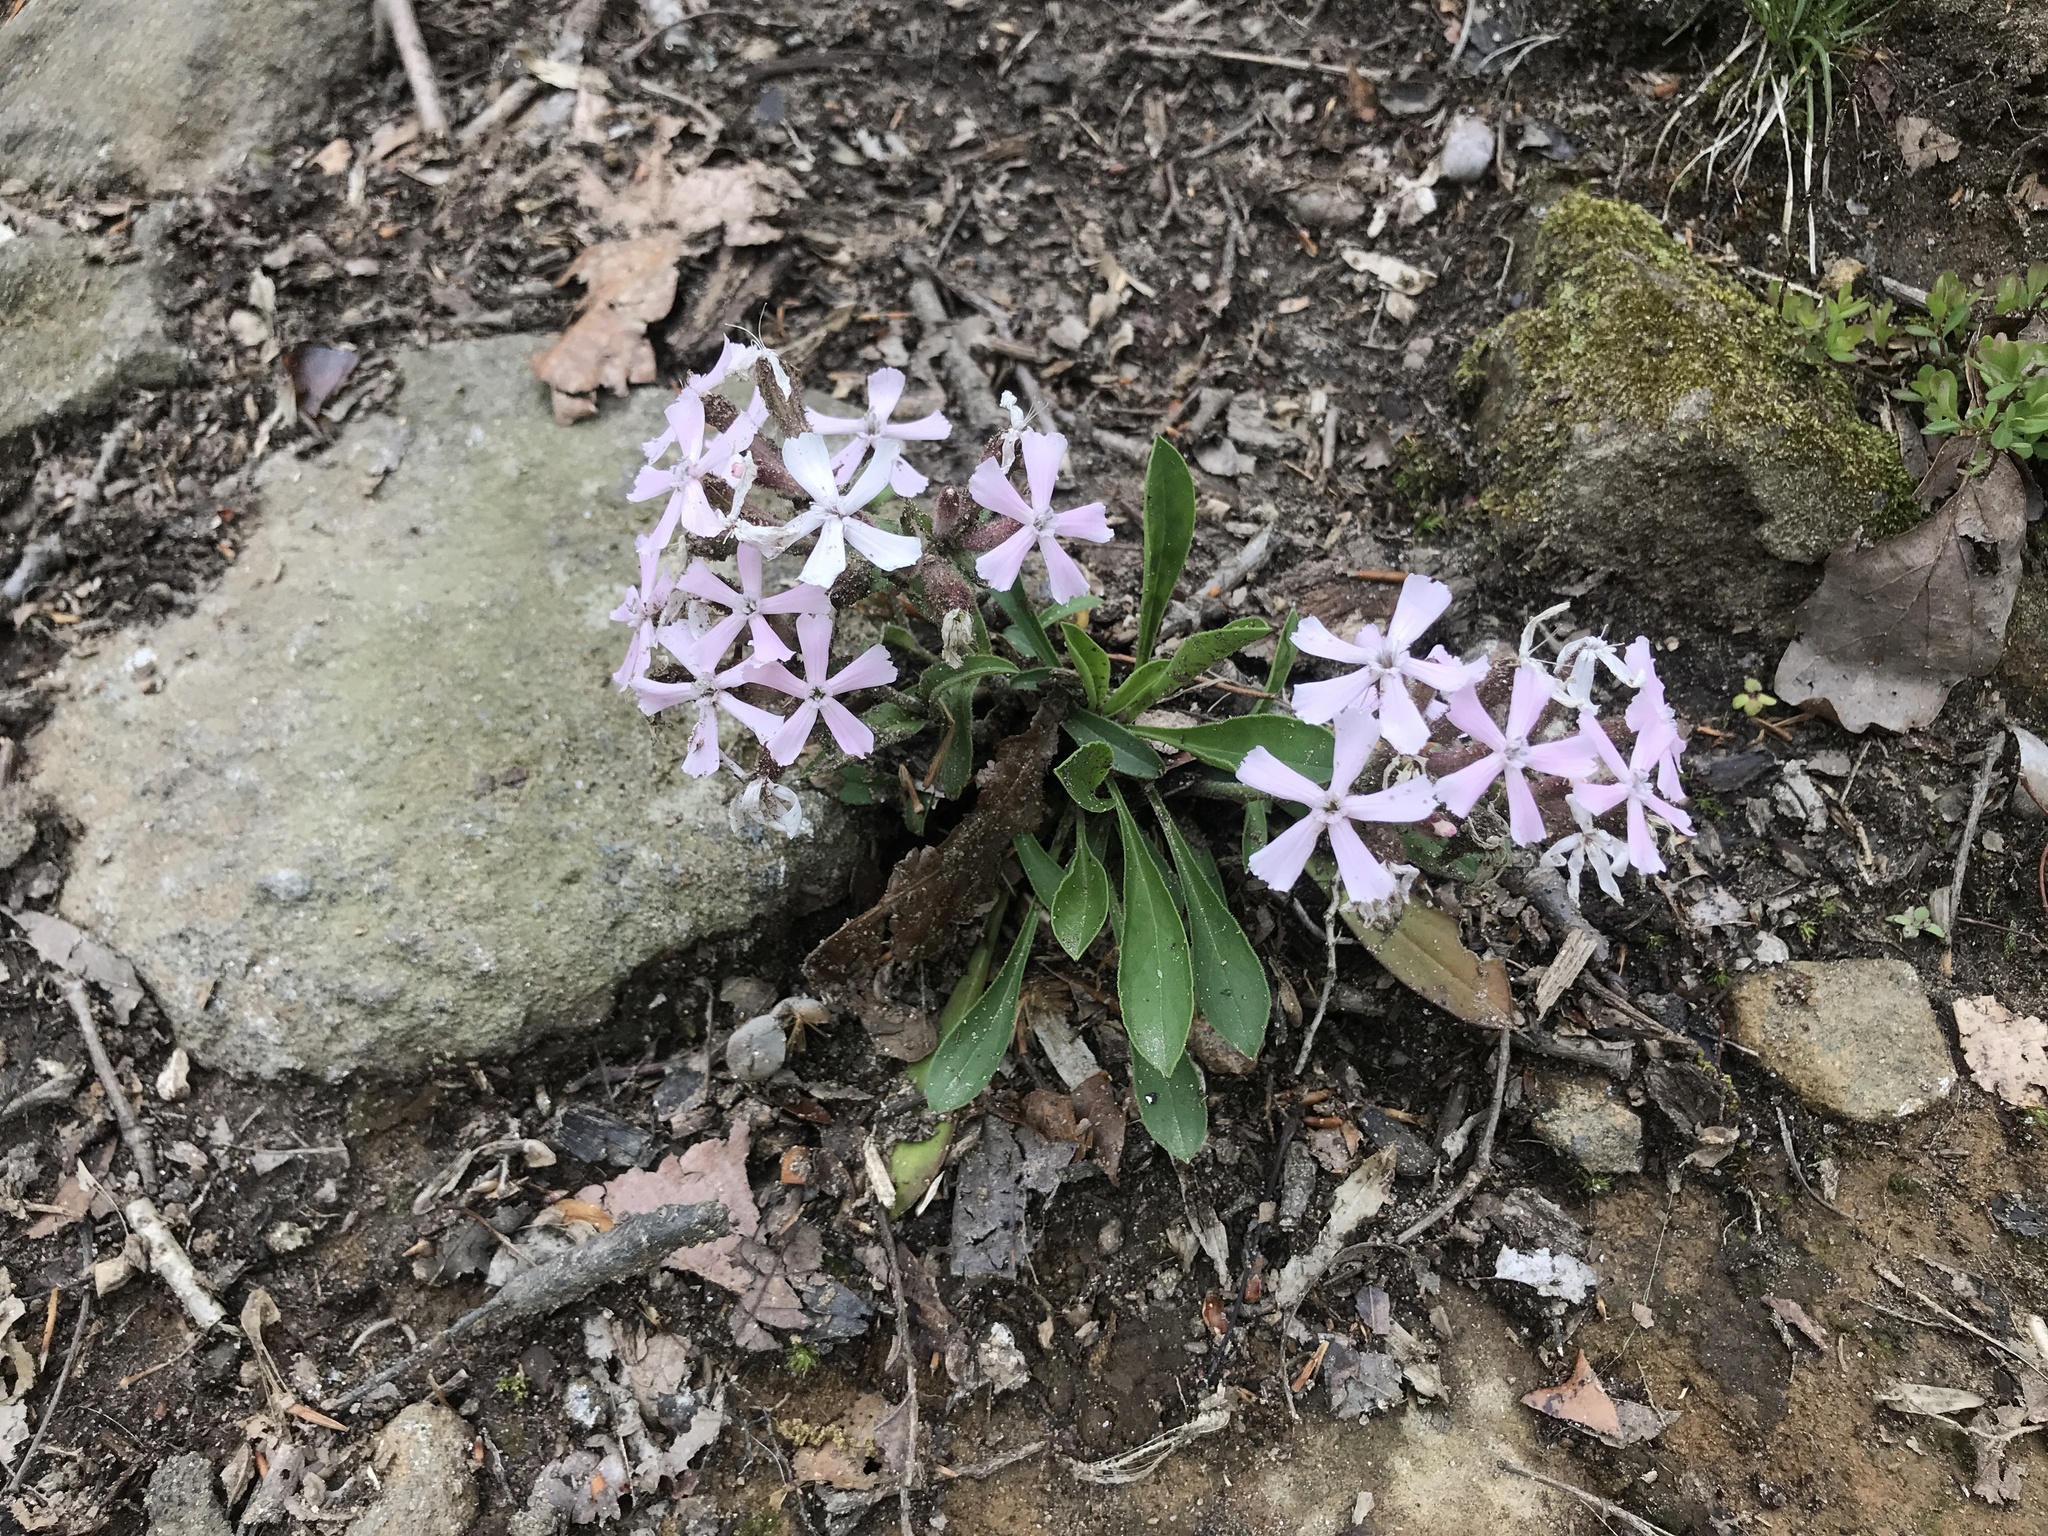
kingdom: Plantae
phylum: Tracheophyta
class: Magnoliopsida
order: Caryophyllales
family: Caryophyllaceae
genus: Silene
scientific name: Silene caroliniana
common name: Sticky catchfly
